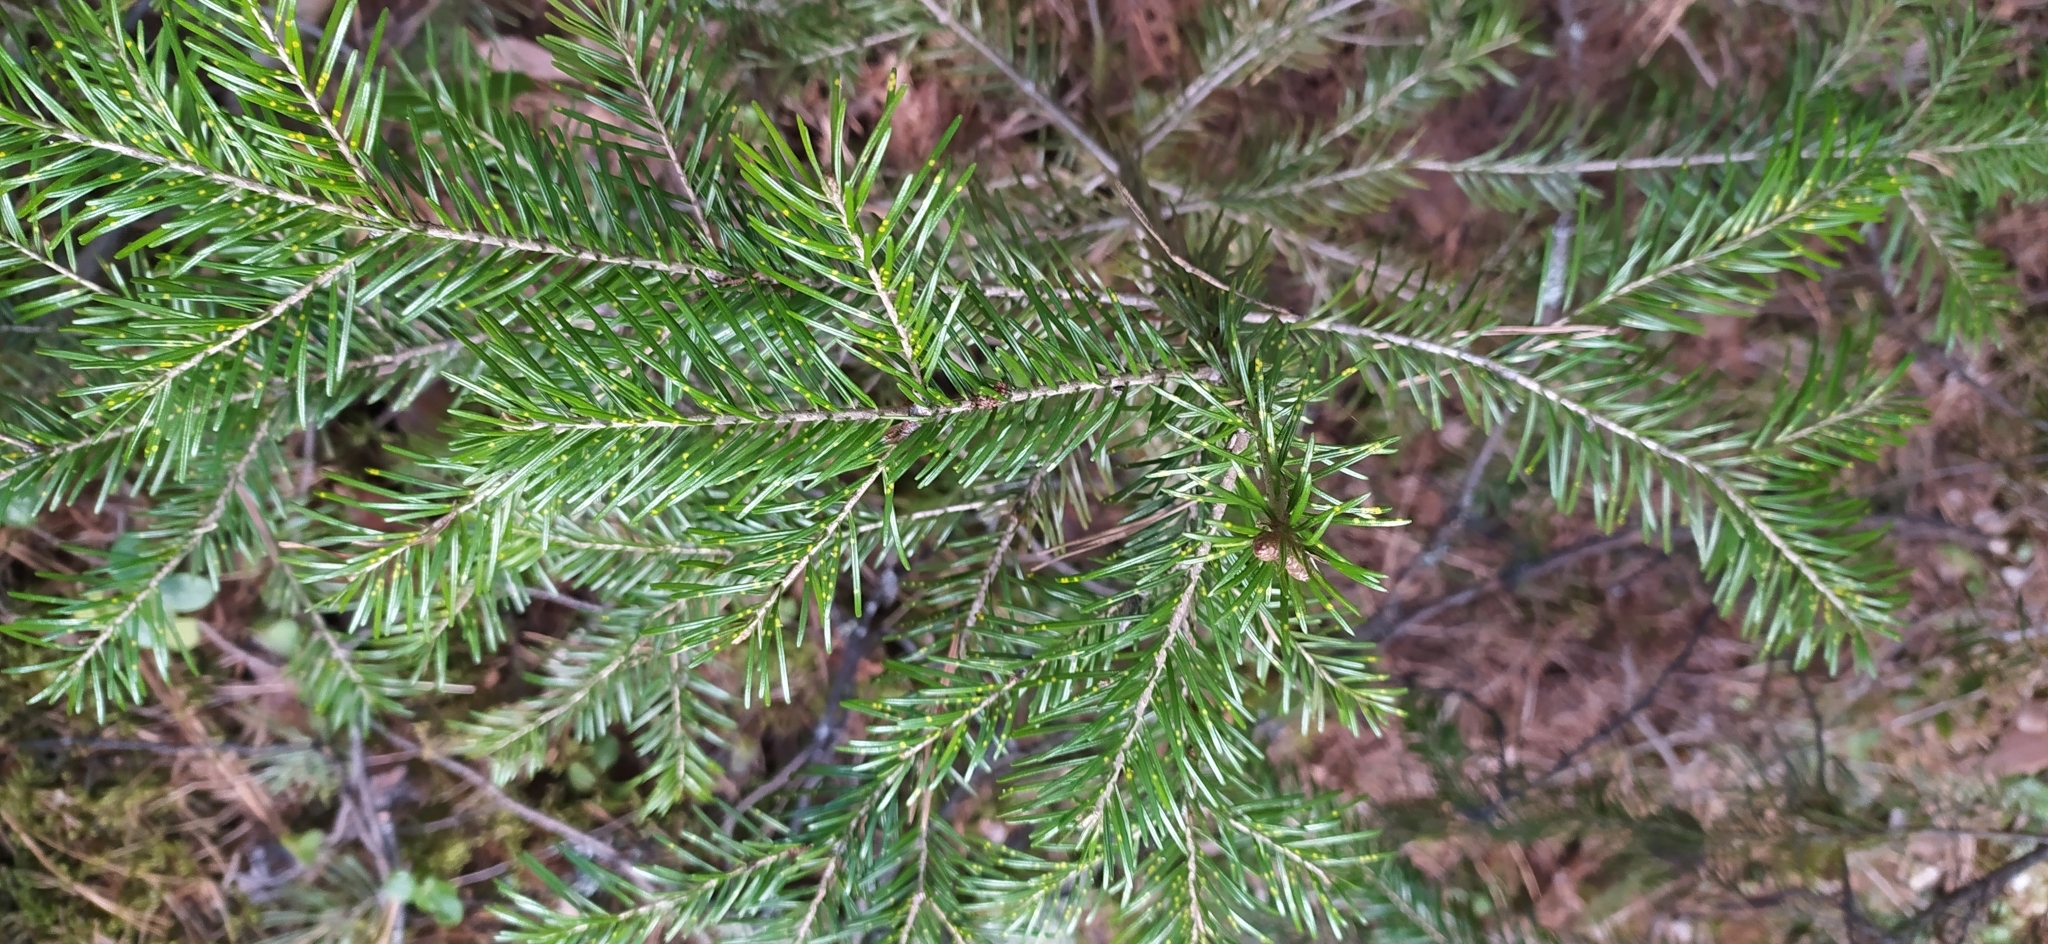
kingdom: Plantae
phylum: Tracheophyta
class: Pinopsida
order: Pinales
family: Pinaceae
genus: Abies
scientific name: Abies sibirica
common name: Siberian fir
